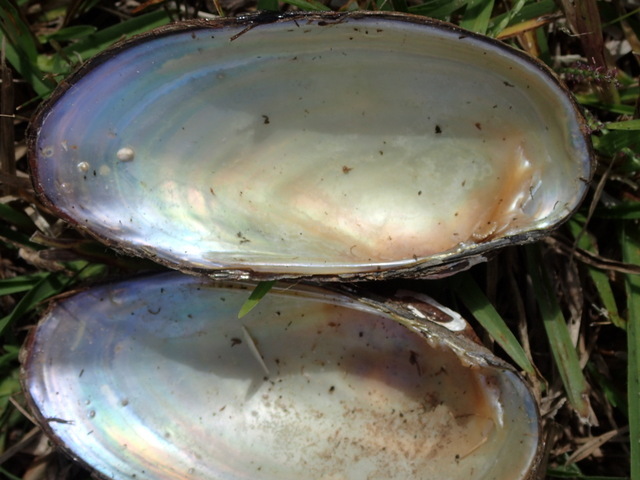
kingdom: Animalia
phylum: Mollusca
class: Bivalvia
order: Unionida
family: Unionidae
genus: Villosa
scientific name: Villosa villosa
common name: Downy rainbow
